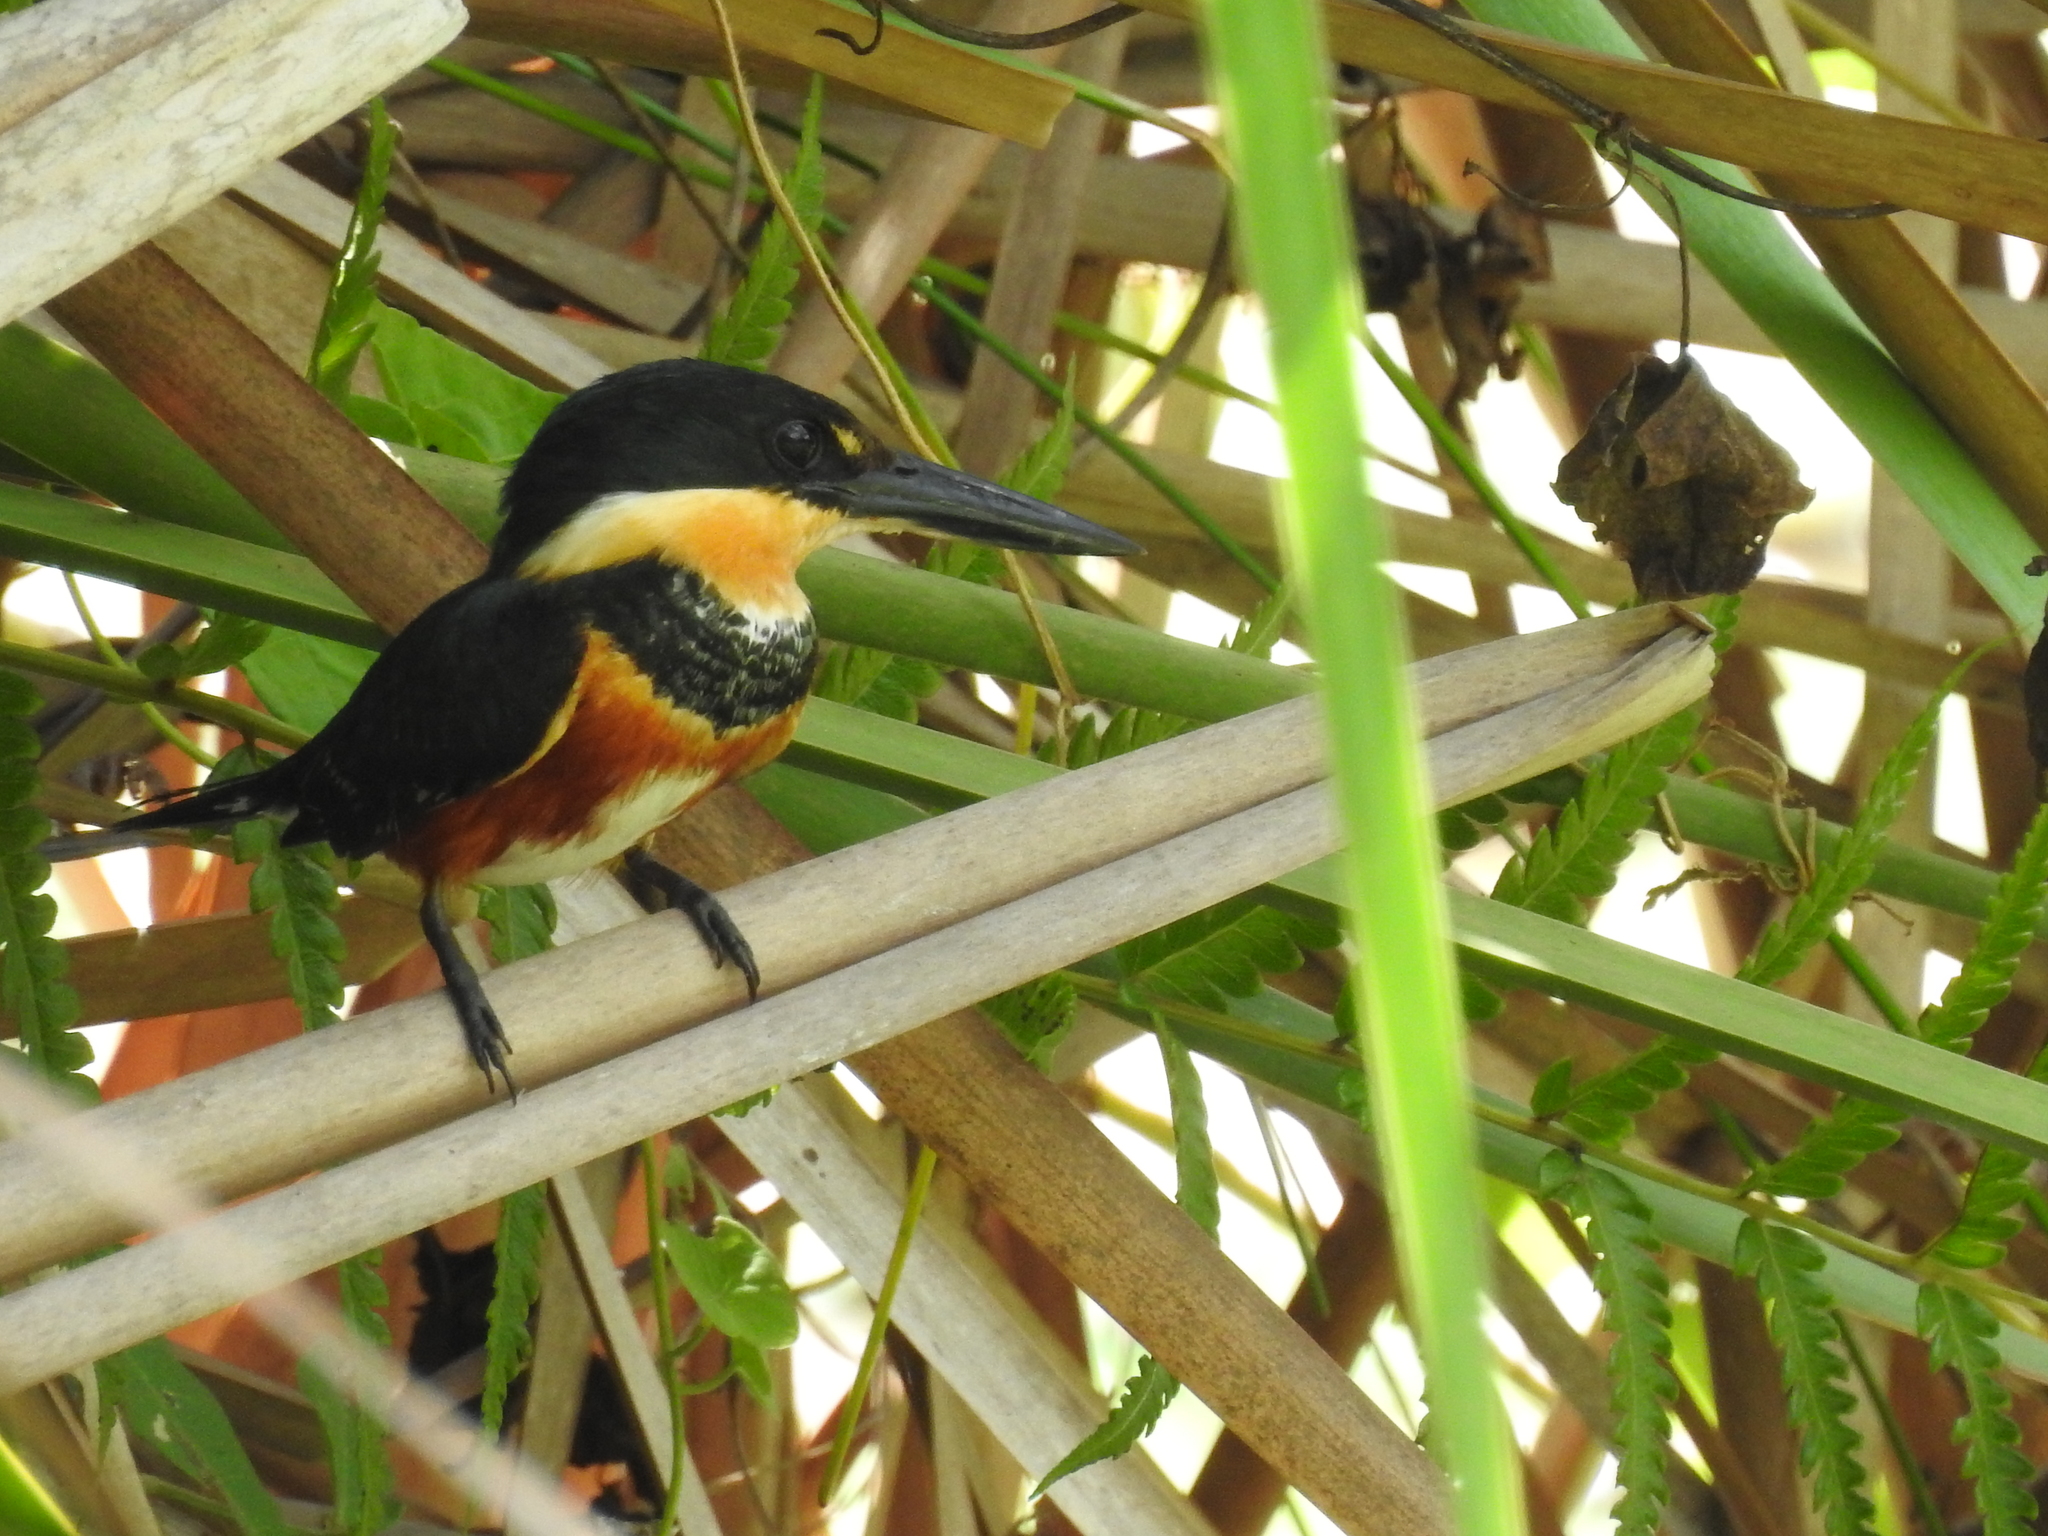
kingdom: Animalia
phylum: Chordata
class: Aves
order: Coraciiformes
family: Alcedinidae
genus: Chloroceryle
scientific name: Chloroceryle aenea
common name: American pygmy kingfisher
